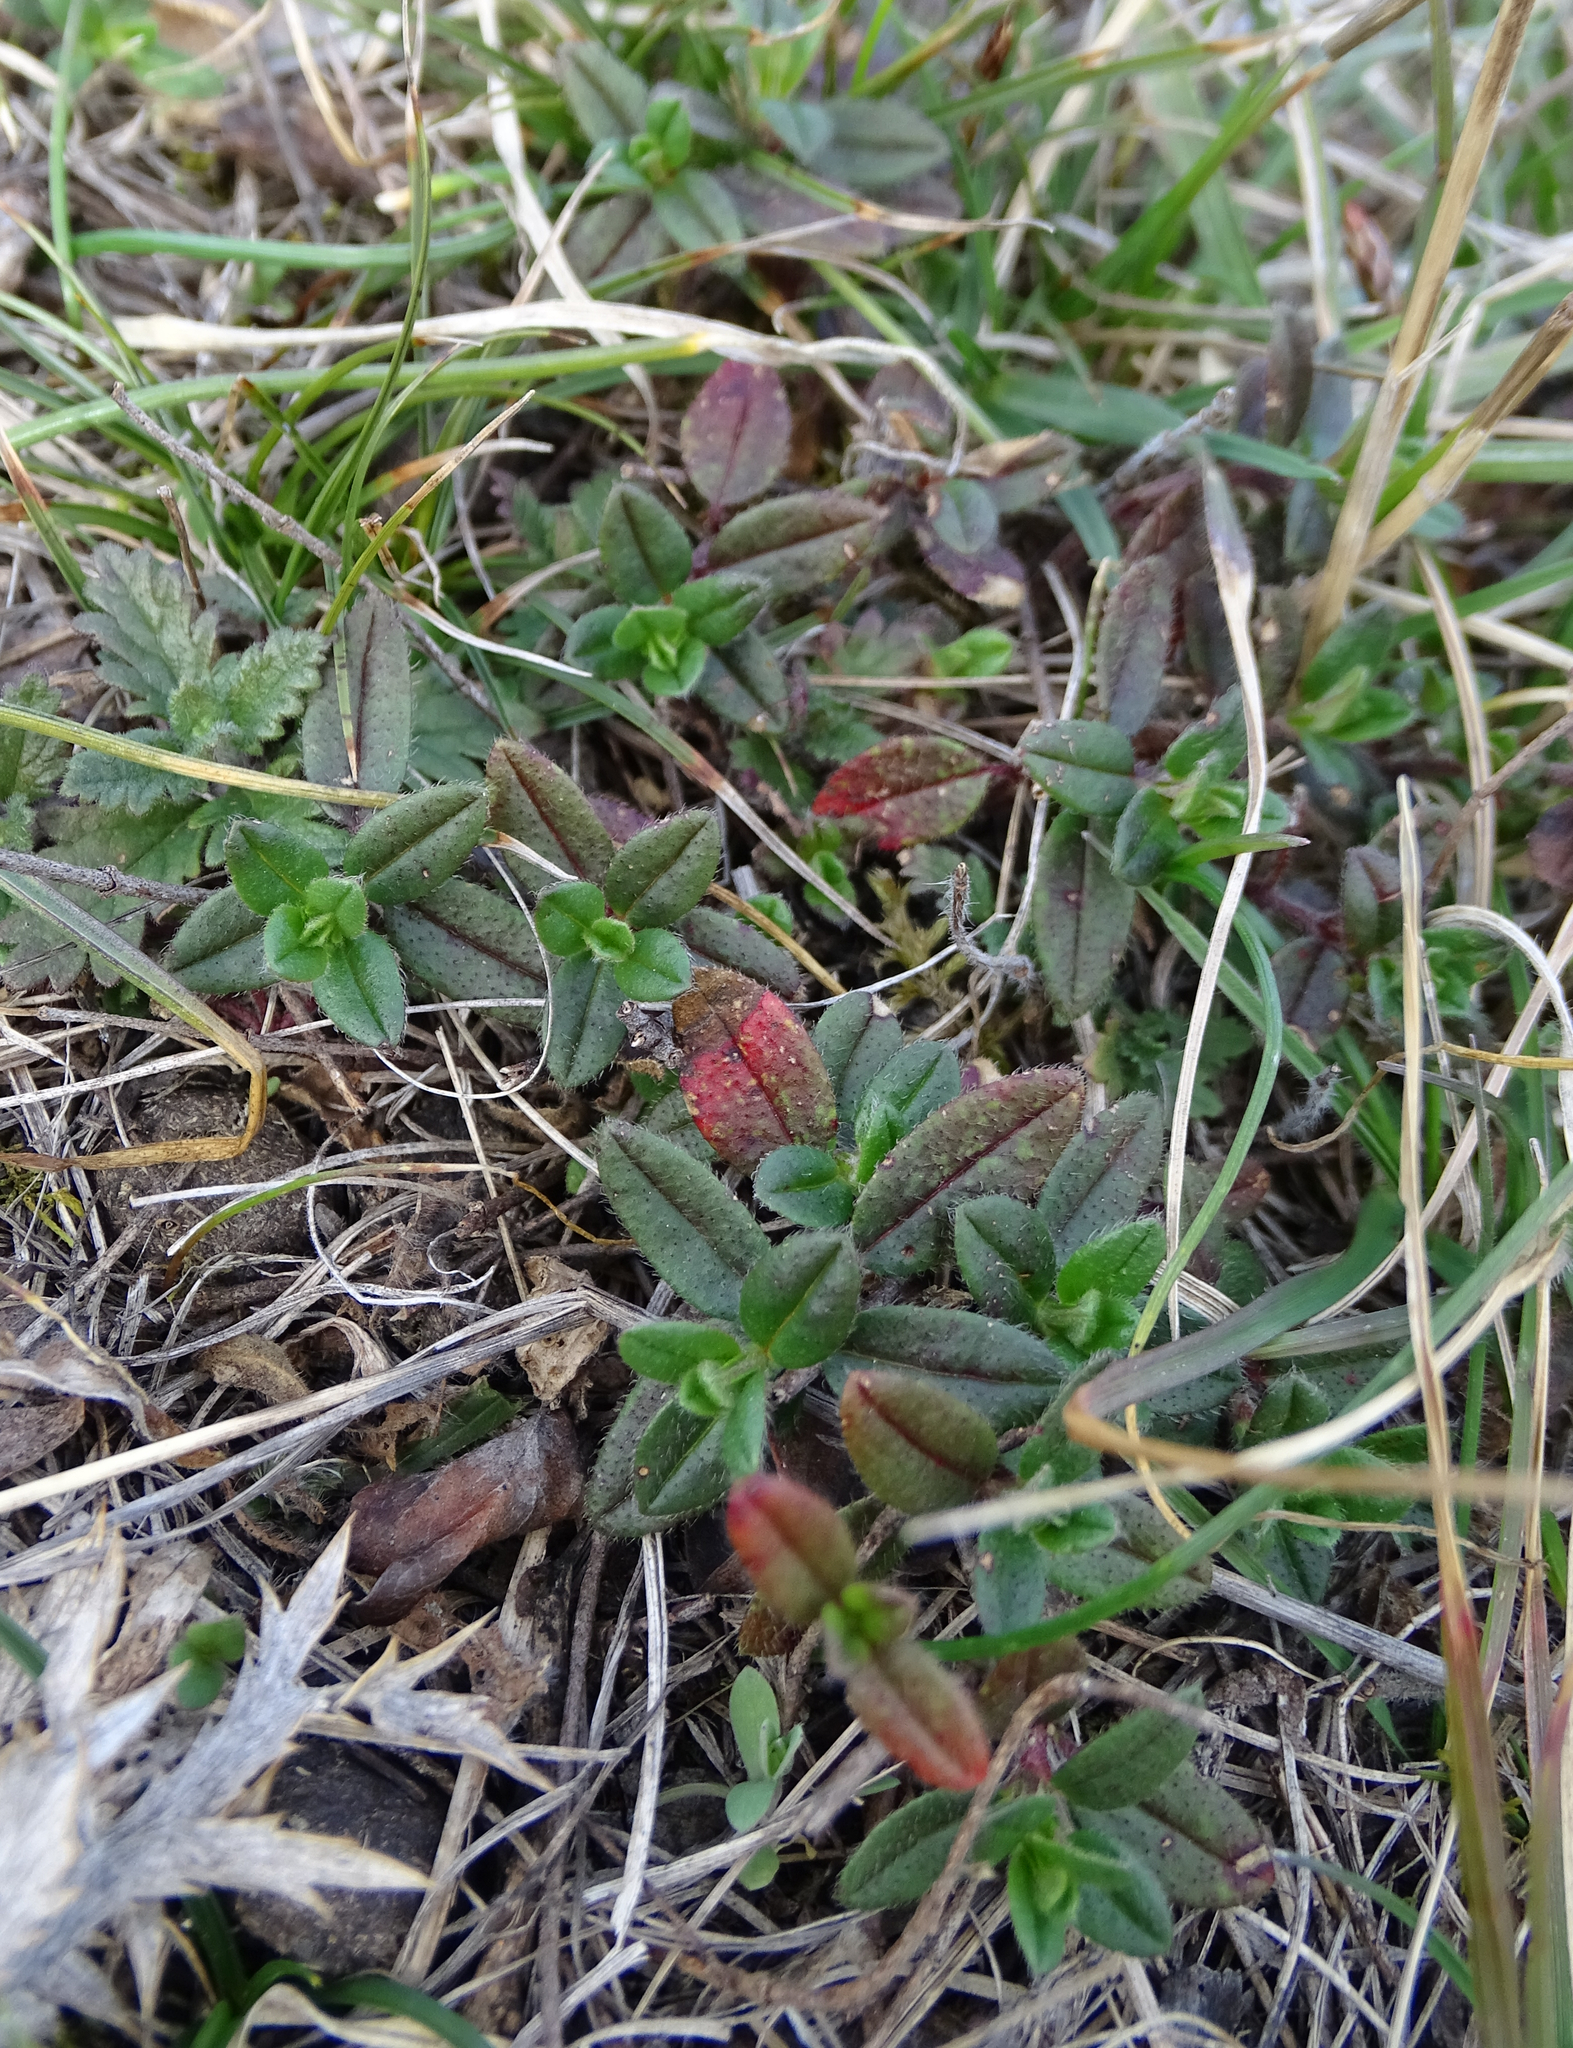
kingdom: Plantae
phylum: Tracheophyta
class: Magnoliopsida
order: Malvales
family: Cistaceae
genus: Helianthemum
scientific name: Helianthemum nummularium
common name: Common rock-rose
